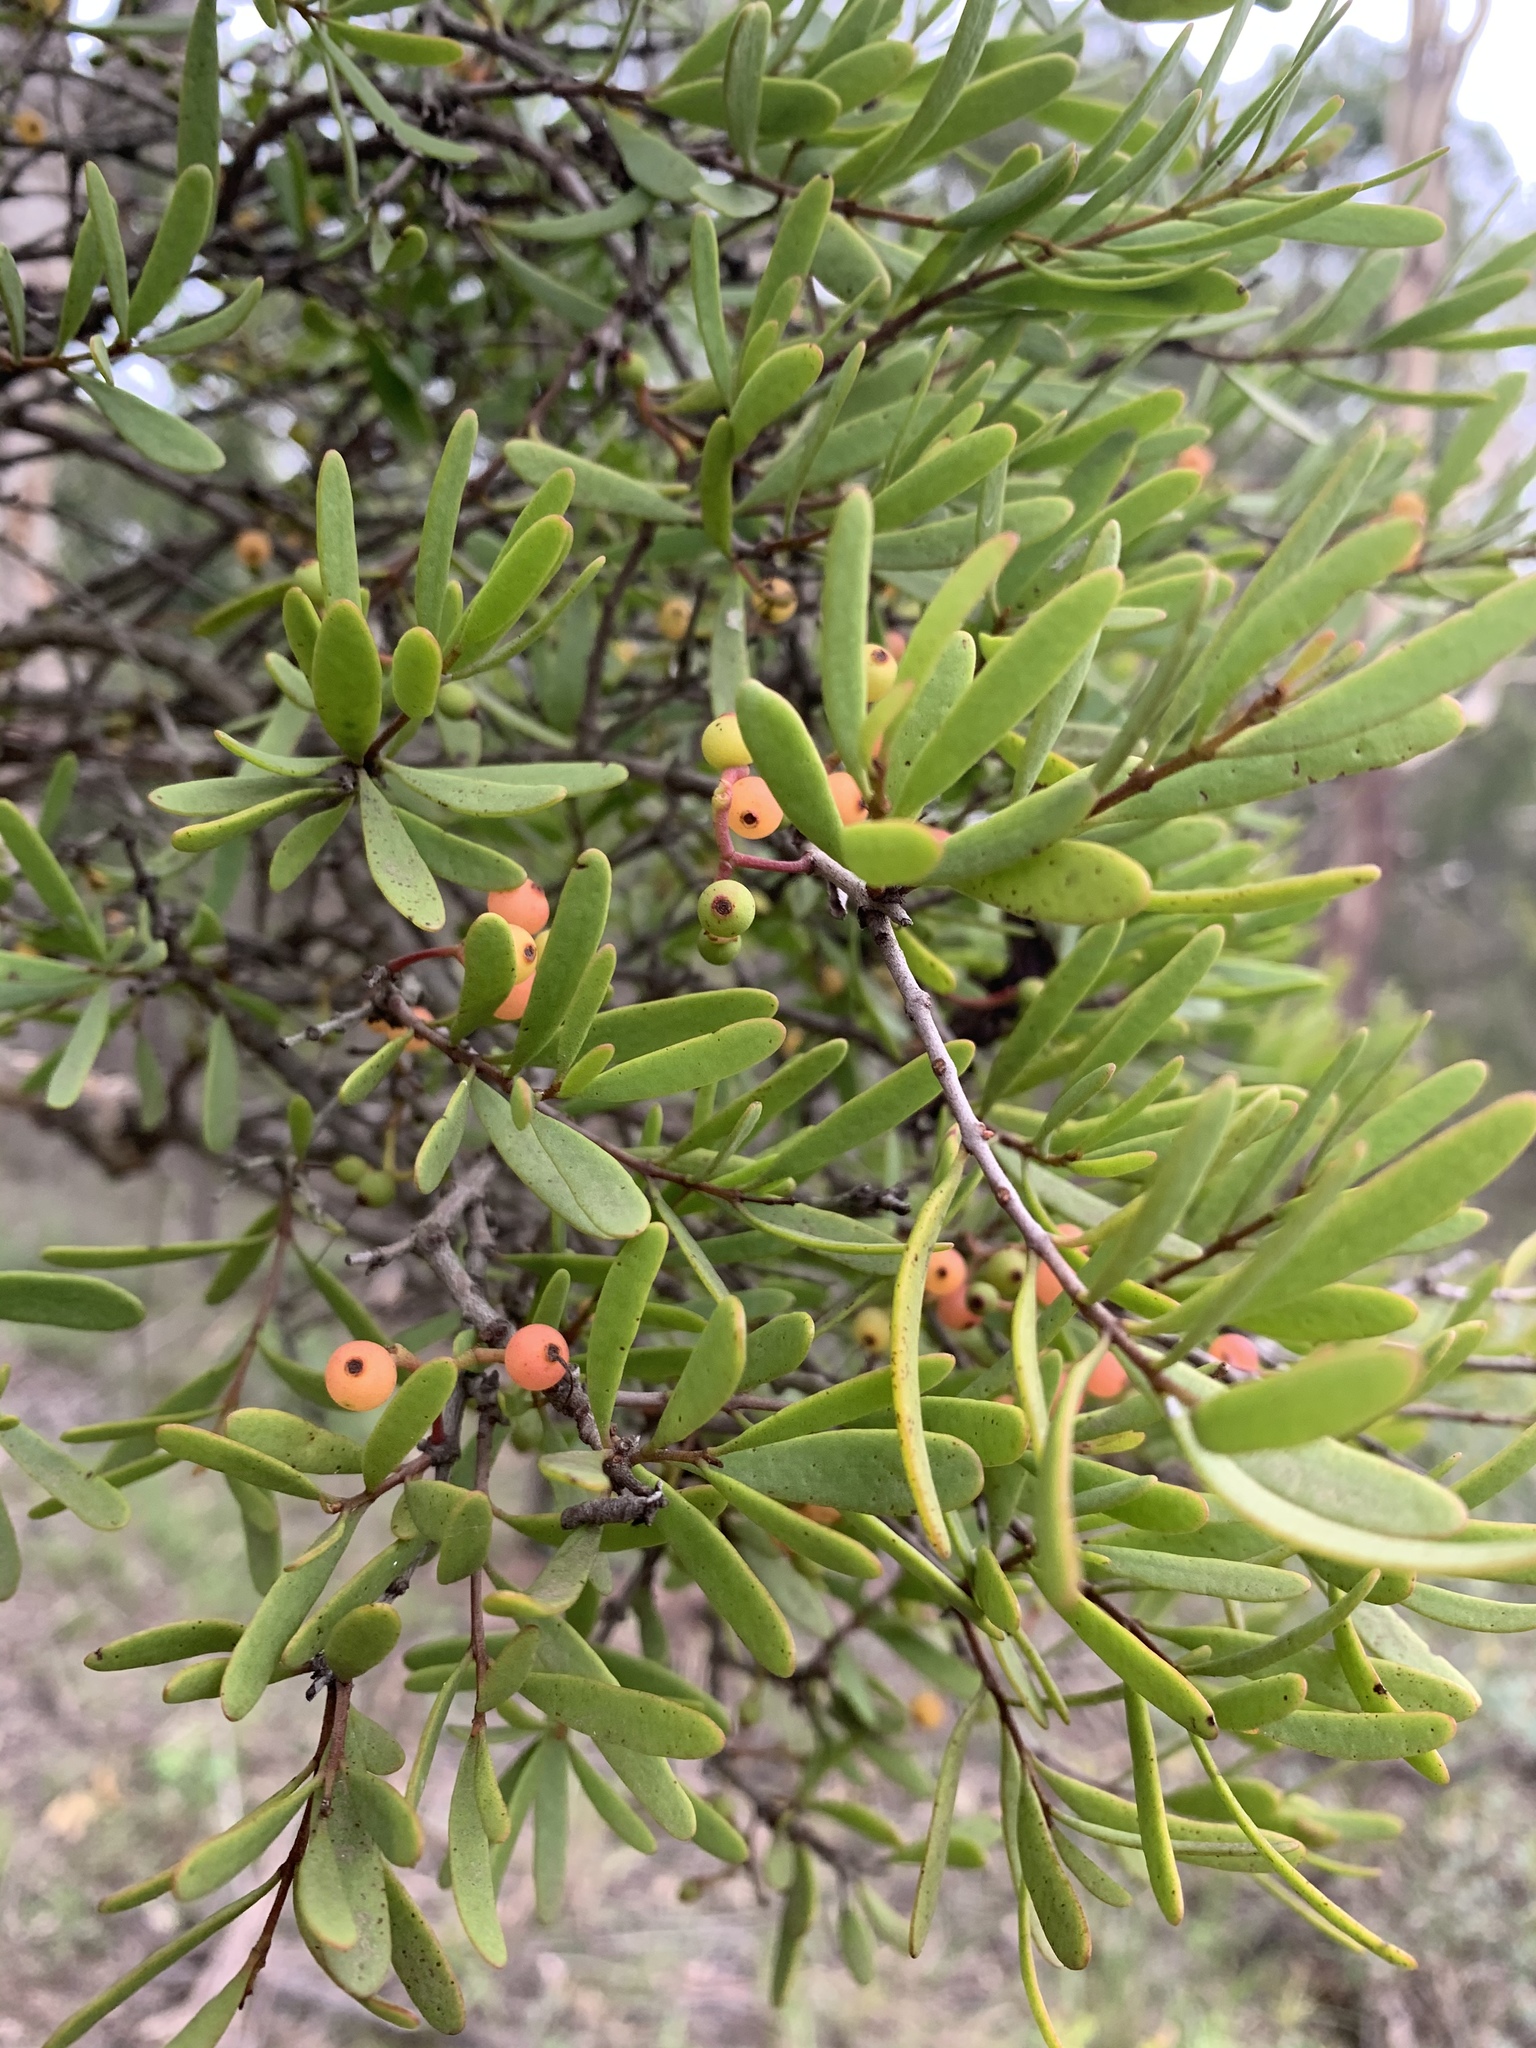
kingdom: Plantae
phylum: Tracheophyta
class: Magnoliopsida
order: Santalales
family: Loranthaceae
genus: Amyema
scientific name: Amyema gaudichaudii
